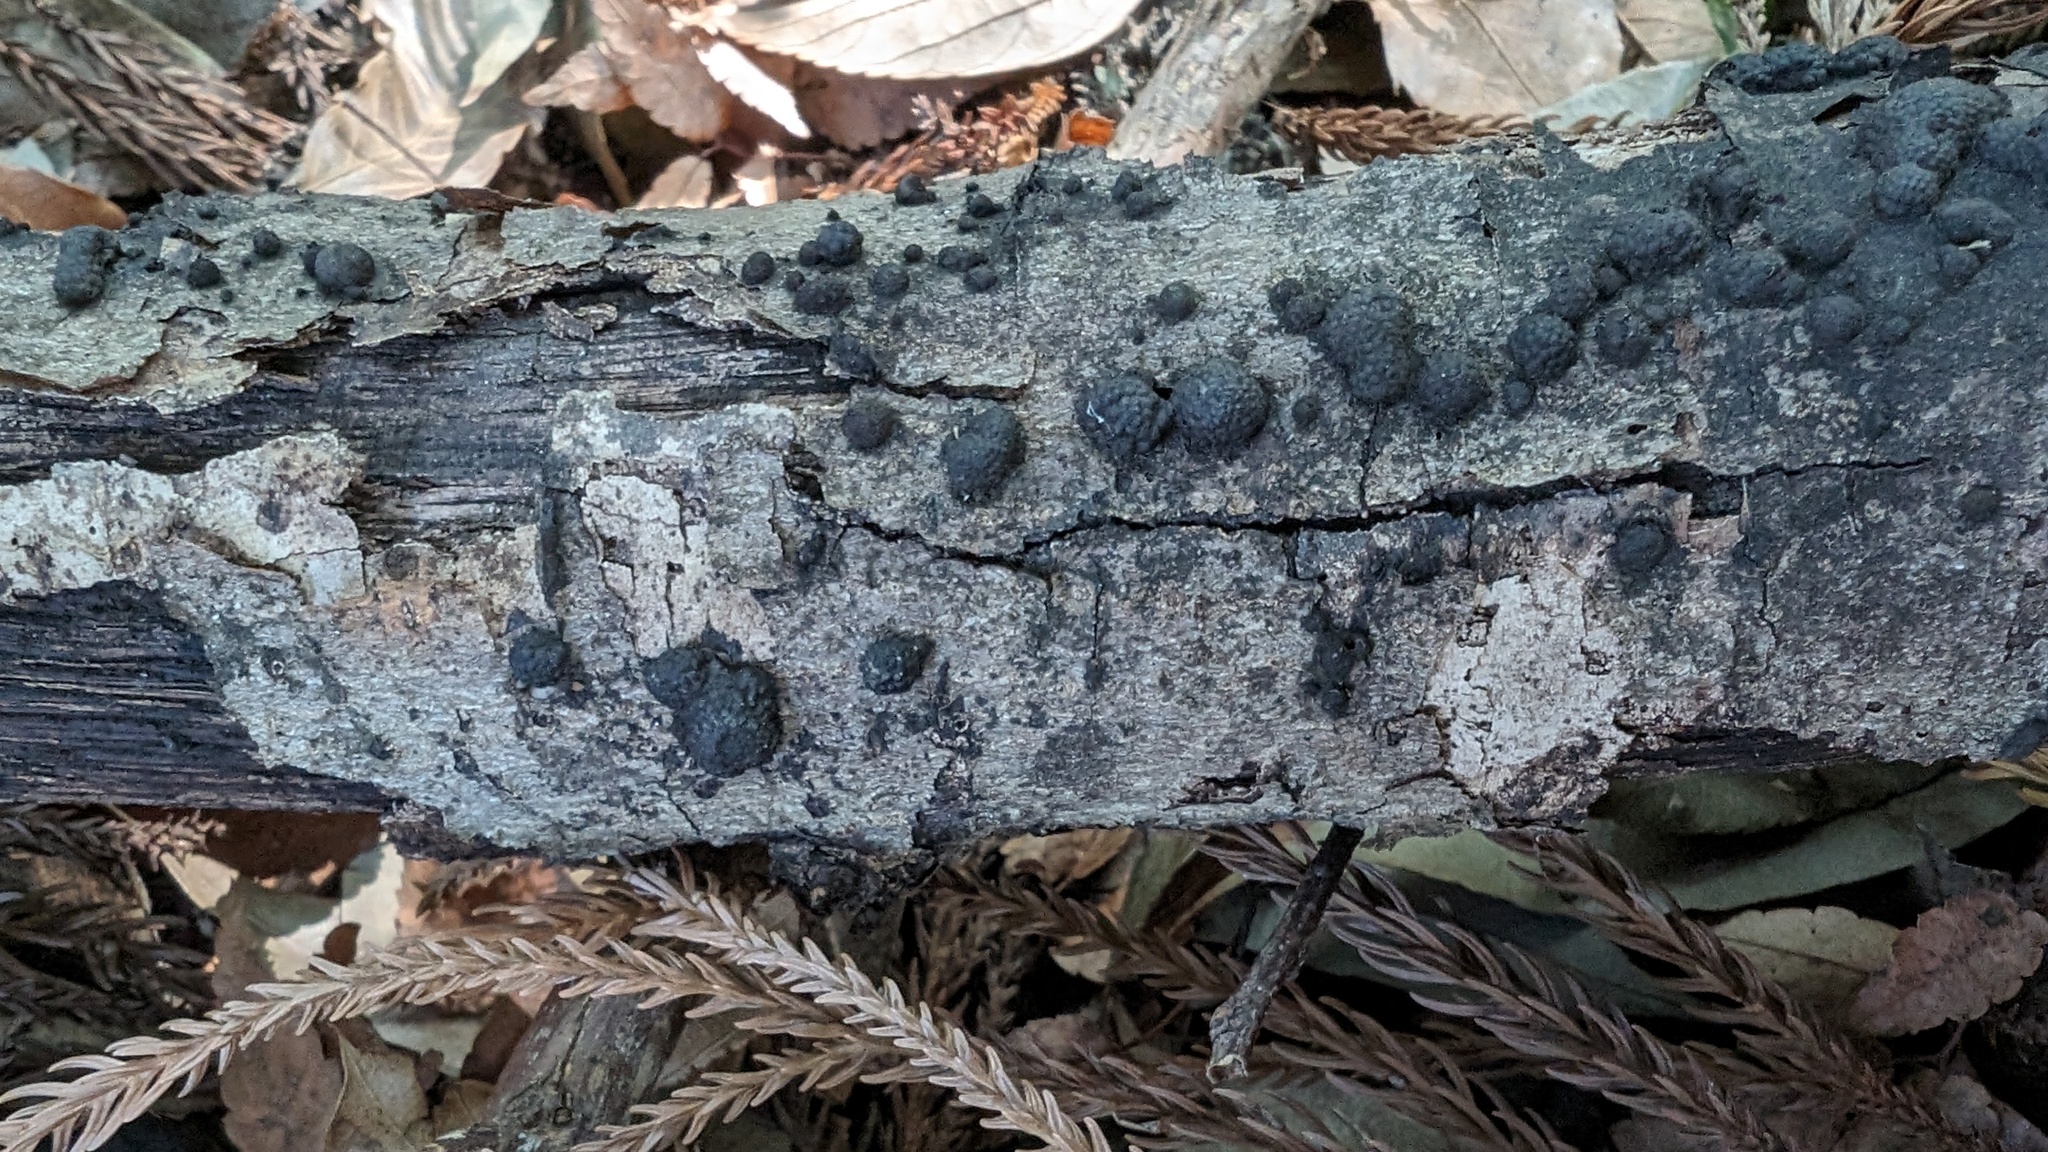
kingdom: Fungi
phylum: Ascomycota
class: Sordariomycetes
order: Xylariales
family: Hypoxylaceae
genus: Annulohypoxylon
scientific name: Annulohypoxylon truncatum
